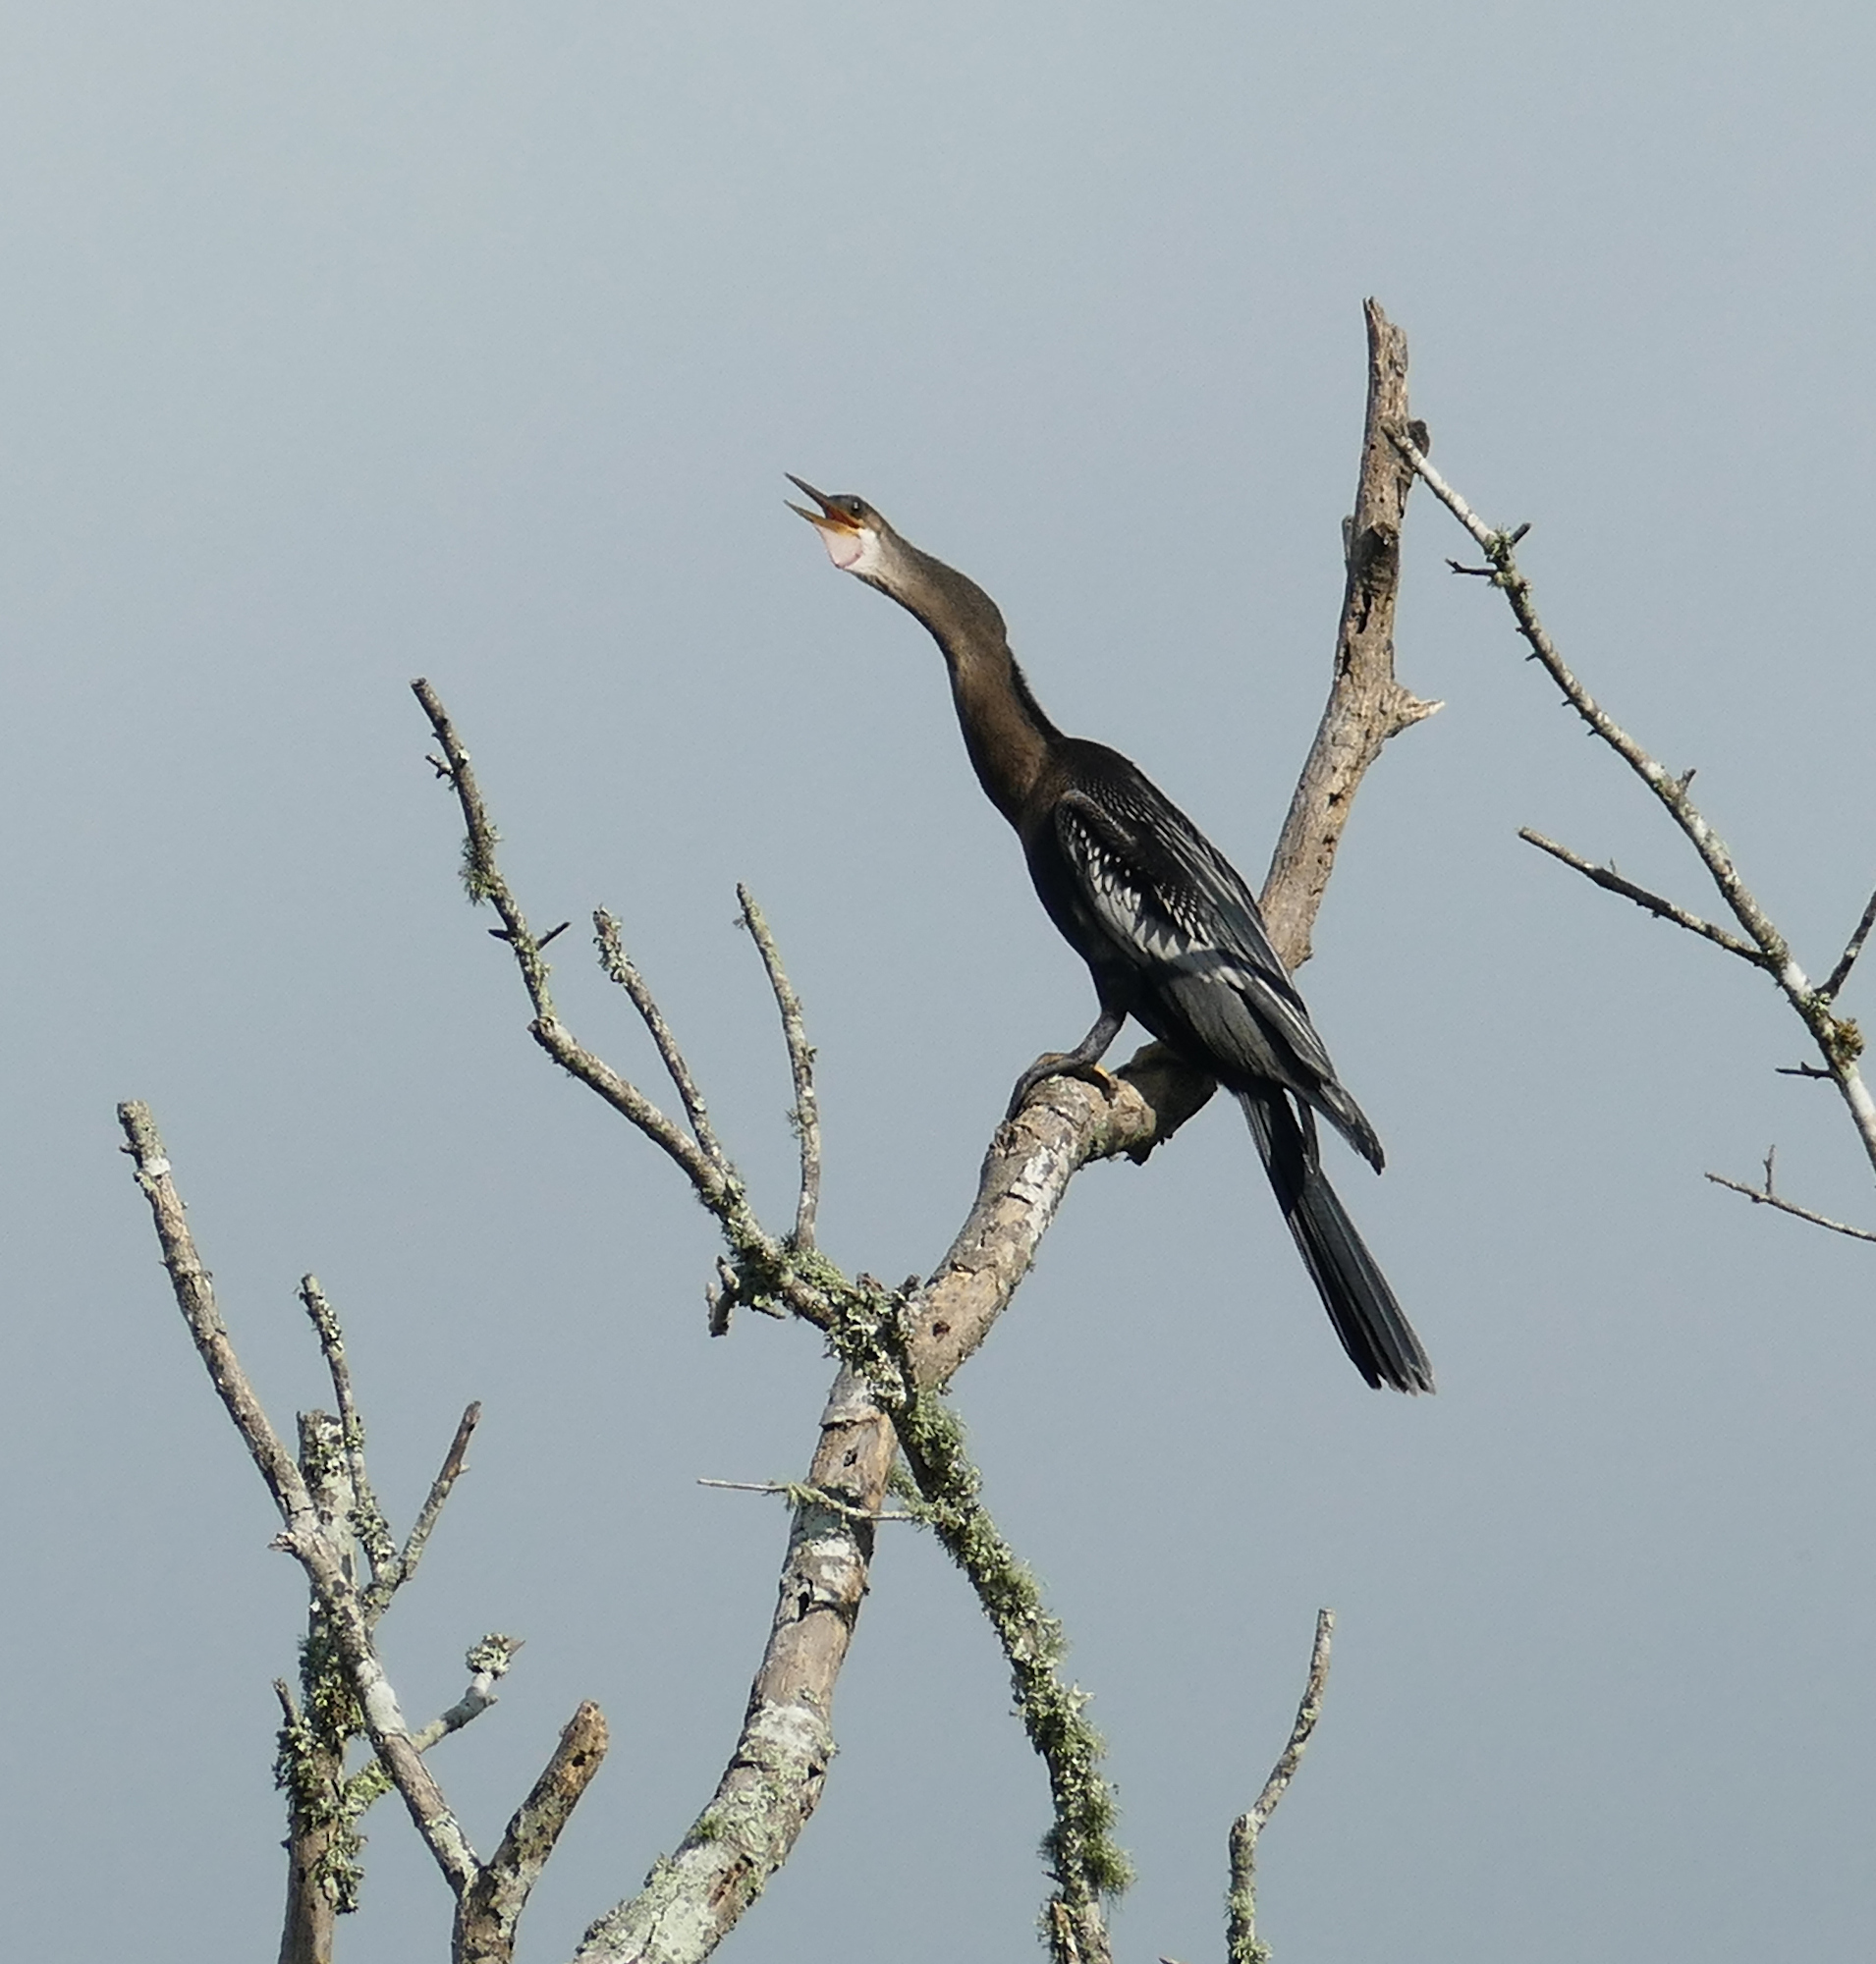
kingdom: Animalia
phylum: Chordata
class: Aves
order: Suliformes
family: Anhingidae
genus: Anhinga
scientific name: Anhinga anhinga
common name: Anhinga
